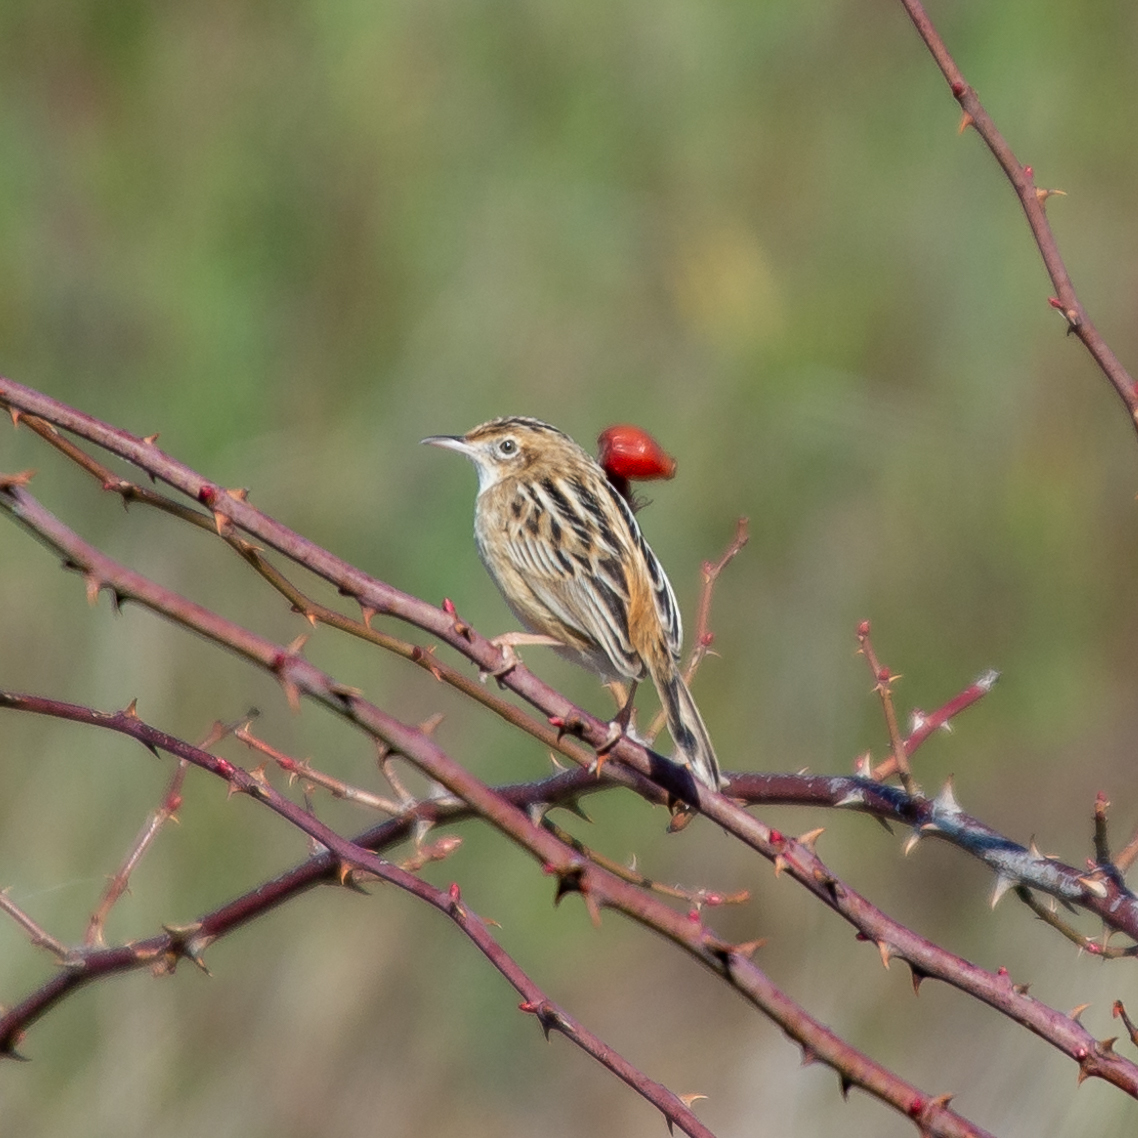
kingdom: Animalia
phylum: Chordata
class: Aves
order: Passeriformes
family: Cisticolidae
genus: Cisticola
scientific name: Cisticola juncidis
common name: Zitting cisticola
